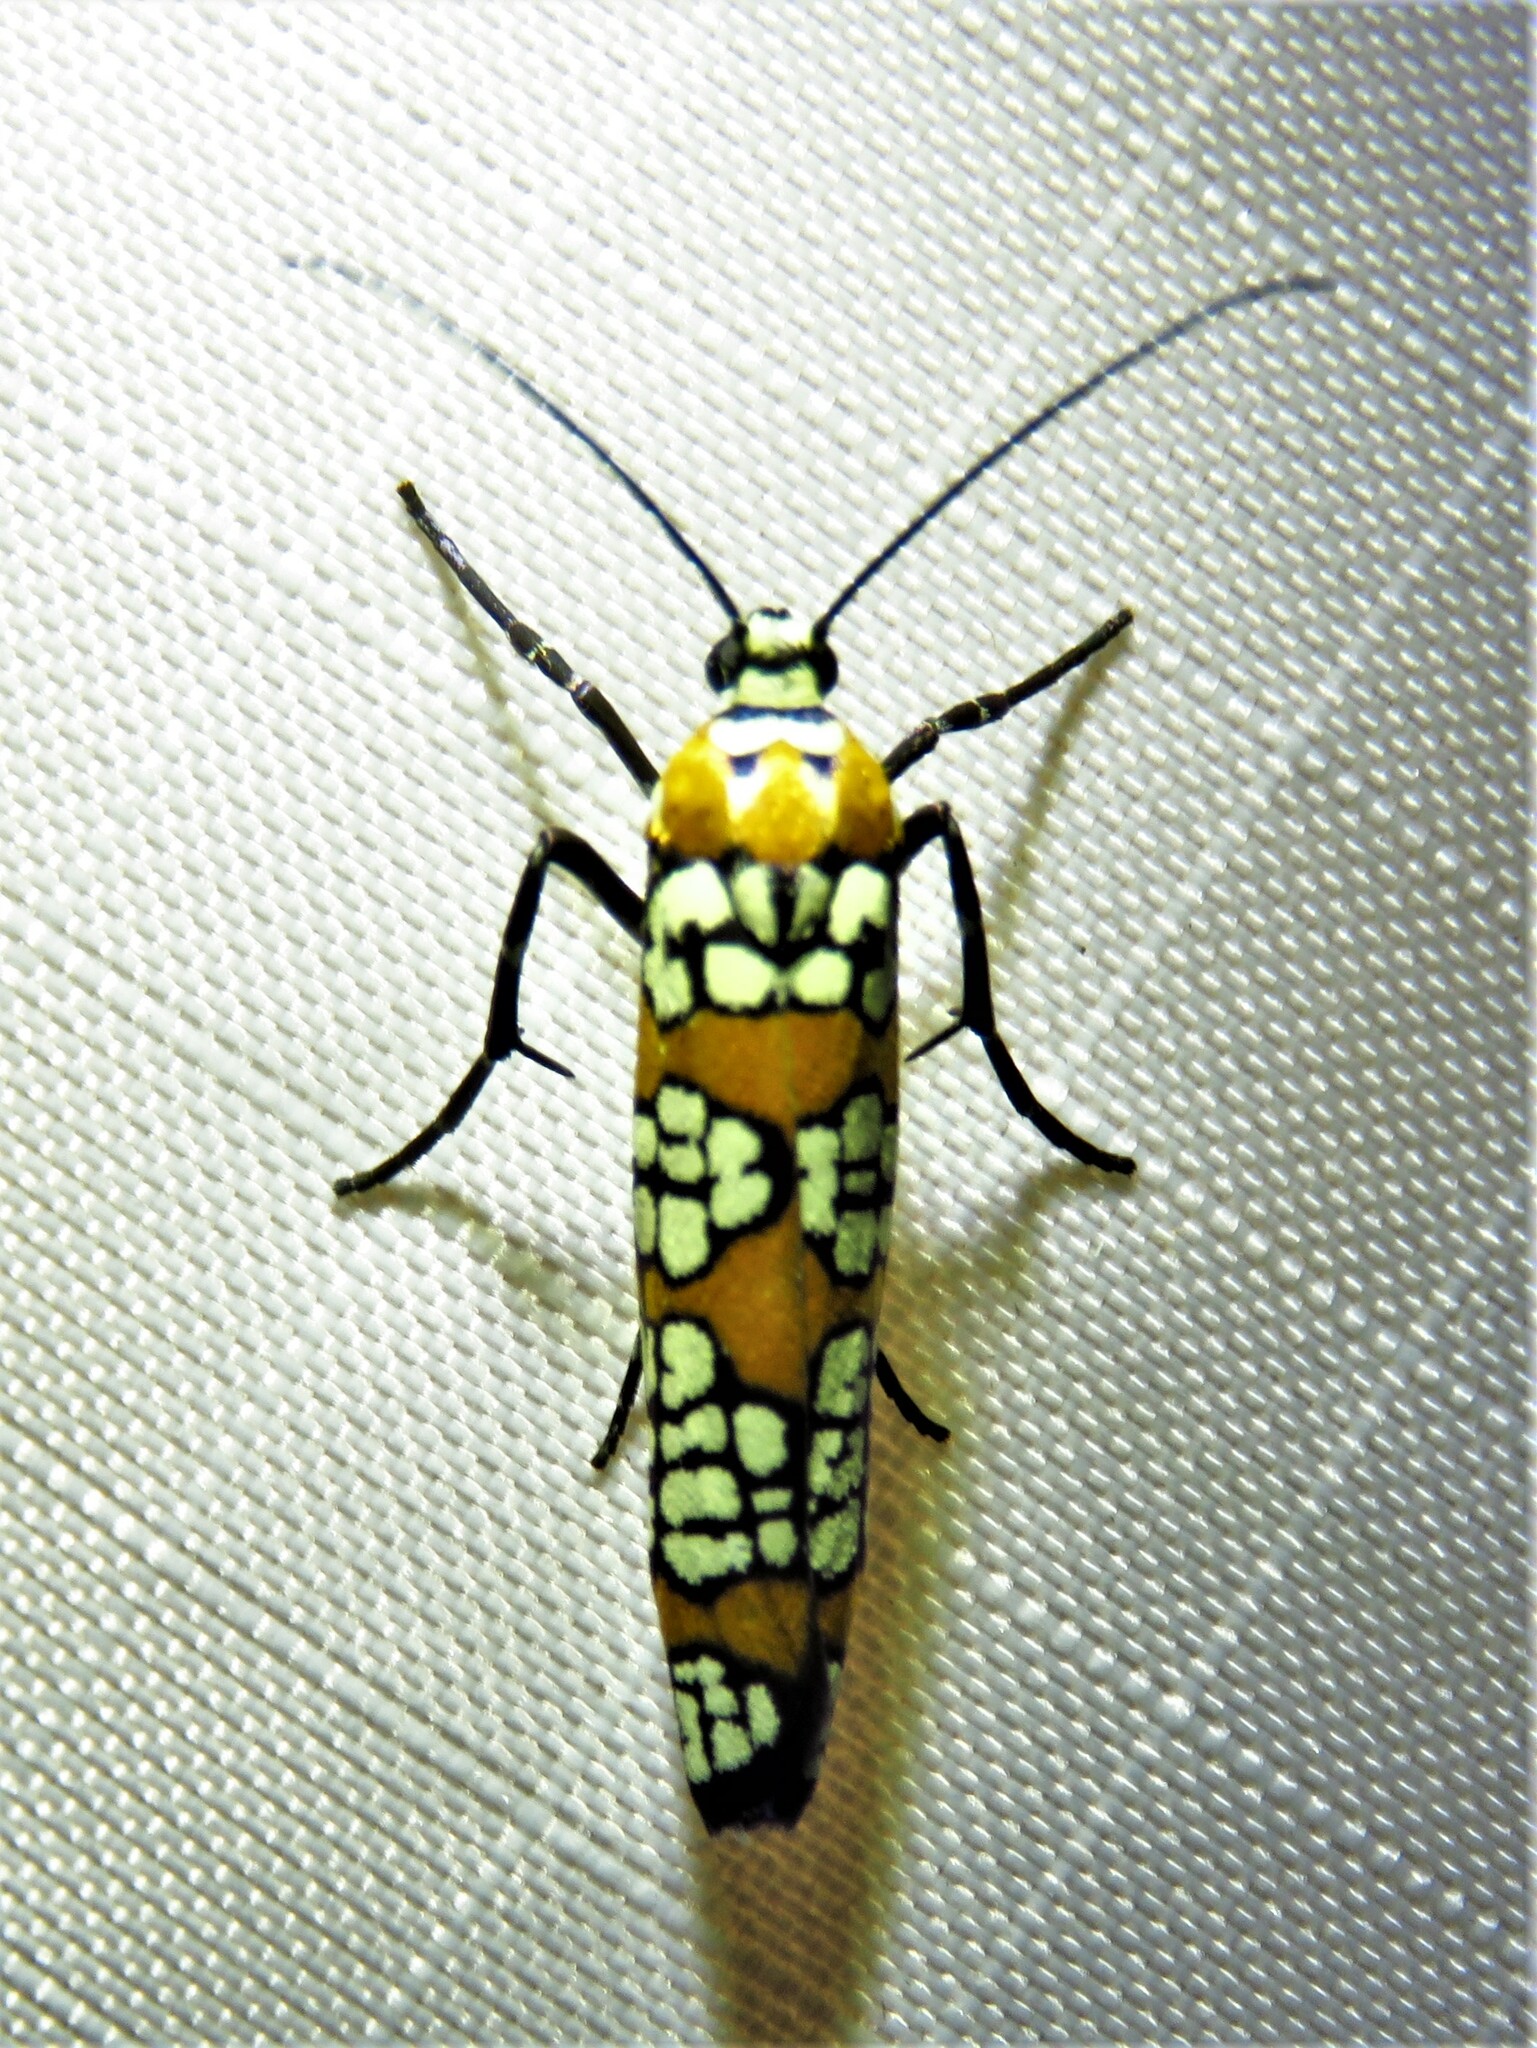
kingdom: Animalia
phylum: Arthropoda
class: Insecta
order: Lepidoptera
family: Attevidae
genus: Atteva
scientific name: Atteva punctella
